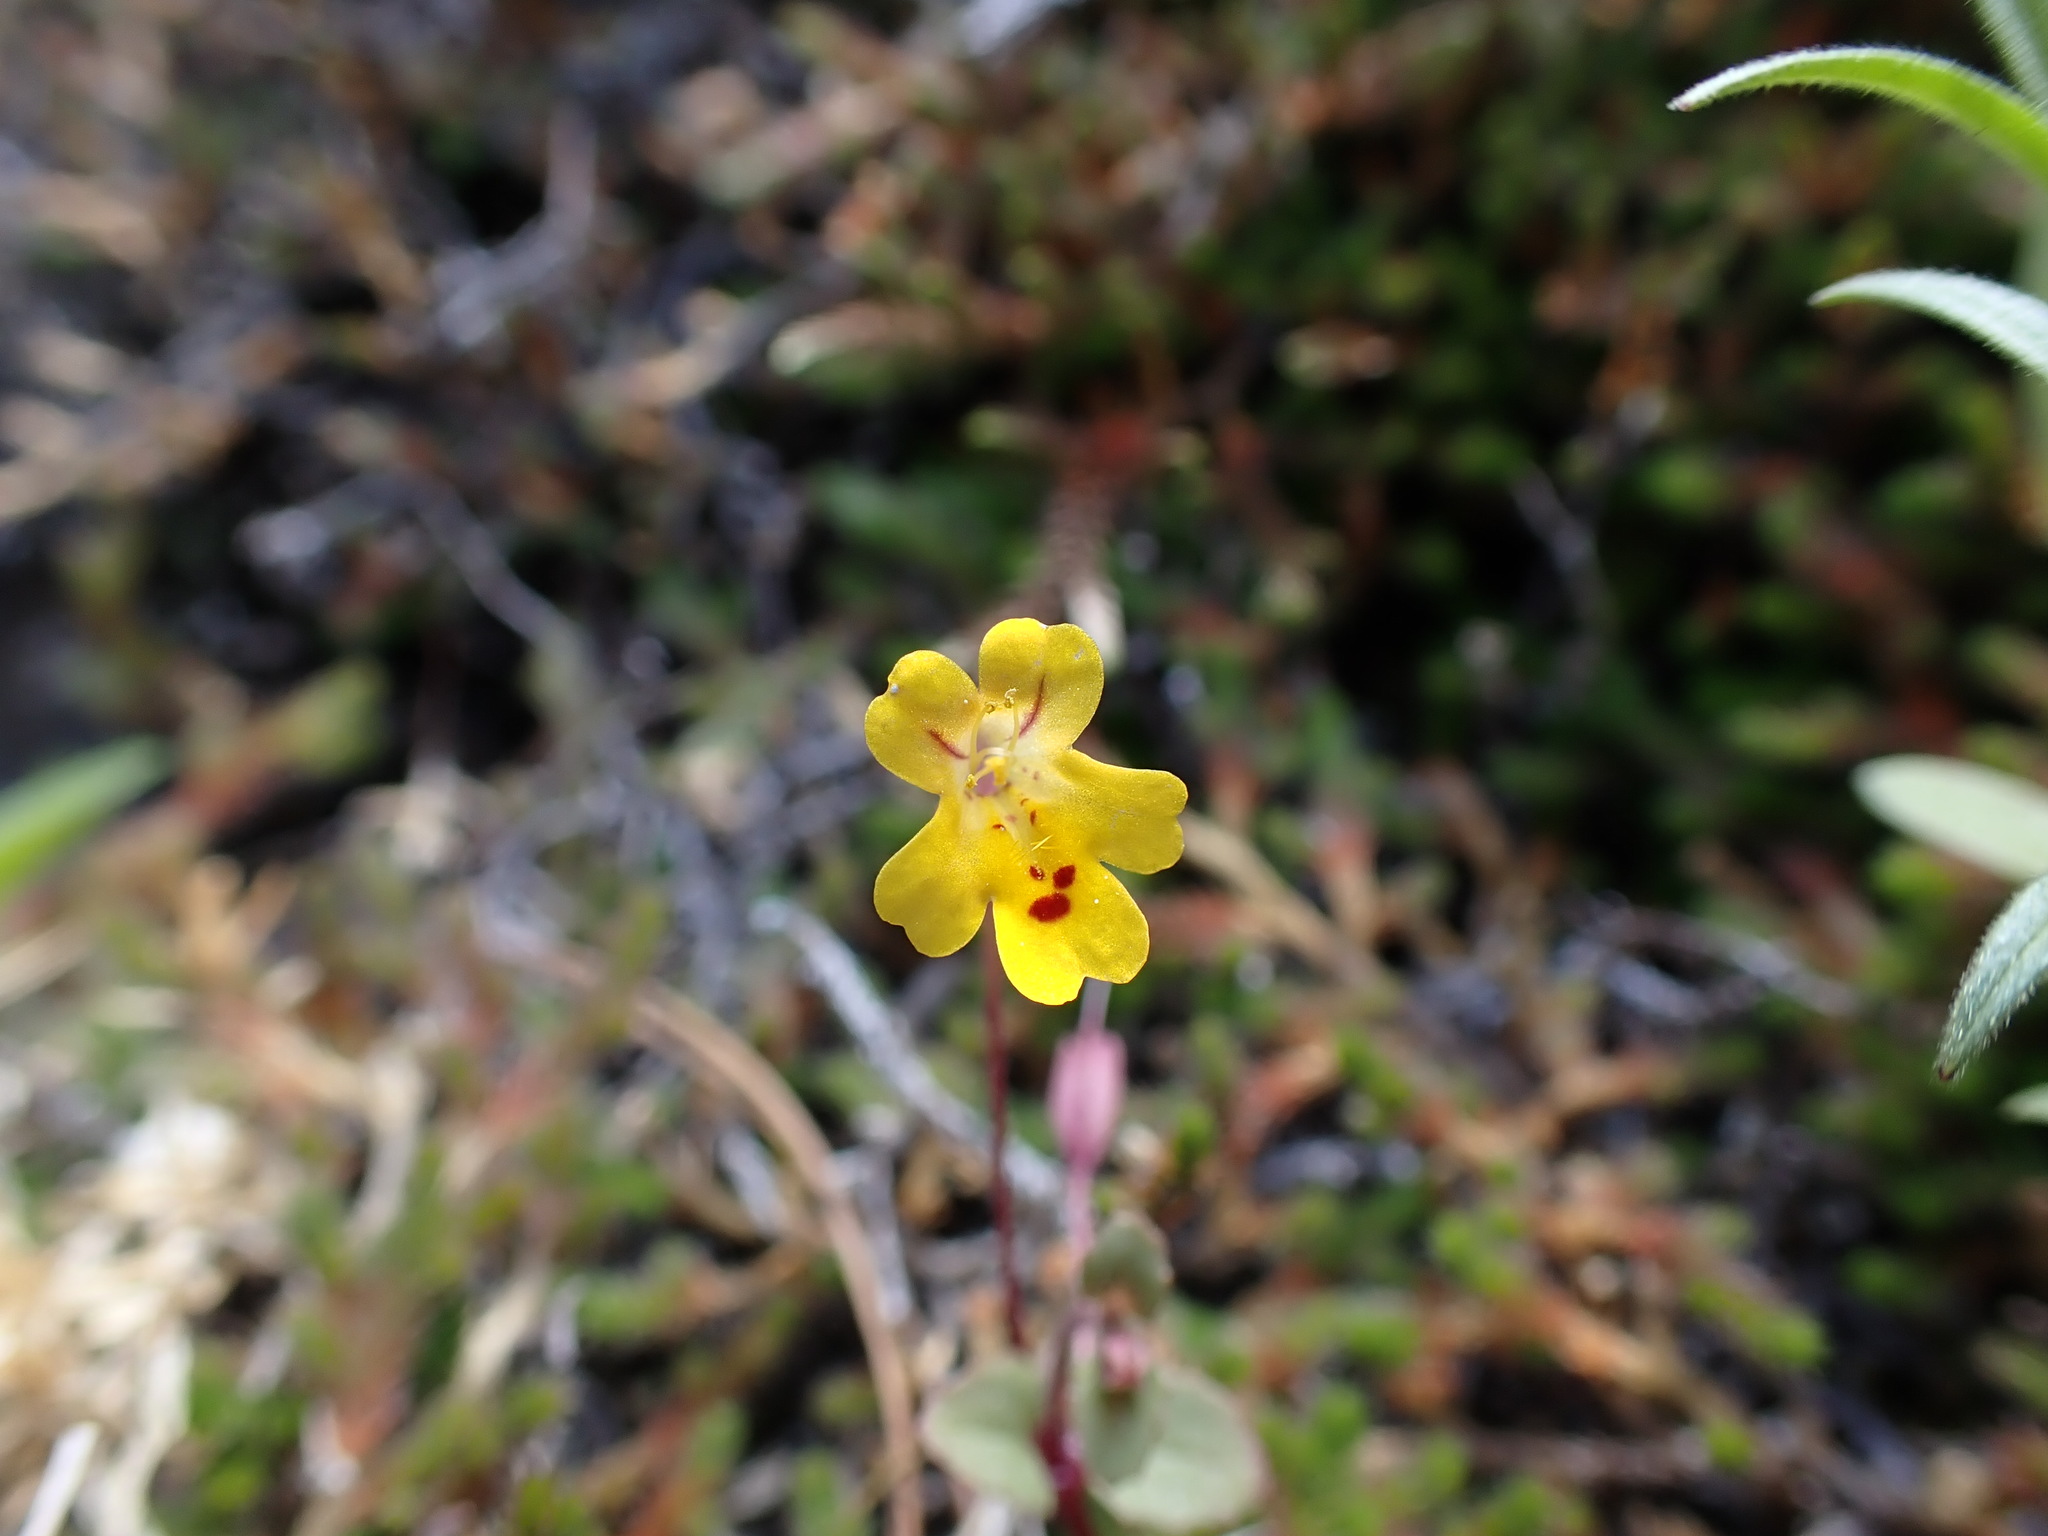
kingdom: Plantae
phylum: Tracheophyta
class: Magnoliopsida
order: Lamiales
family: Phrymaceae
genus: Erythranthe
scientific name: Erythranthe alsinoides
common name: Chickweed monkeyflower
